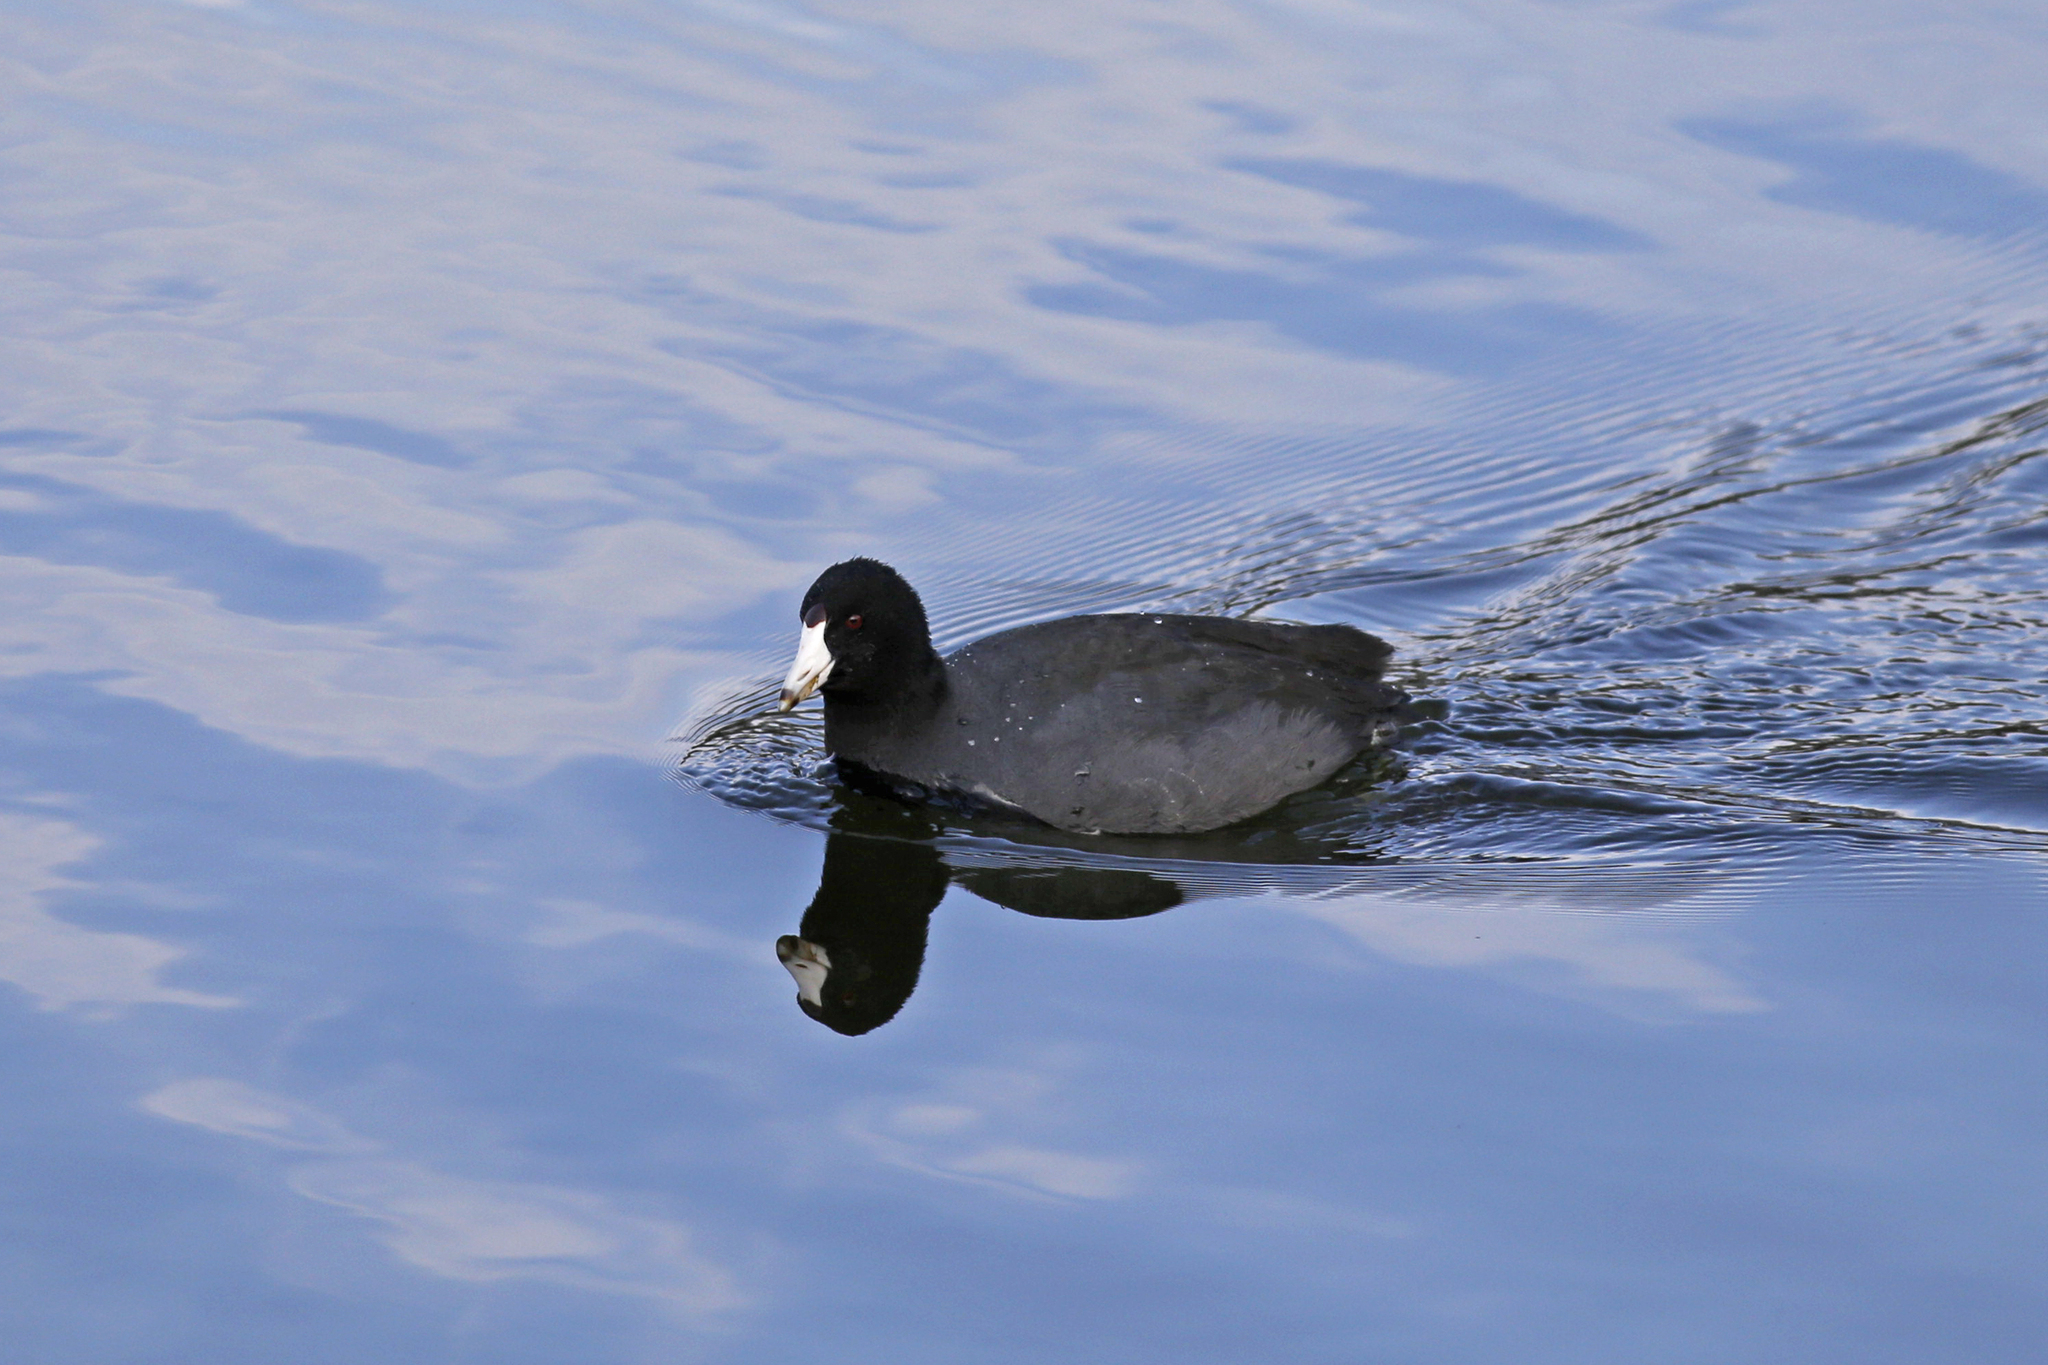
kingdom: Animalia
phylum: Chordata
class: Aves
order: Gruiformes
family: Rallidae
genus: Fulica
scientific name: Fulica americana
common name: American coot
